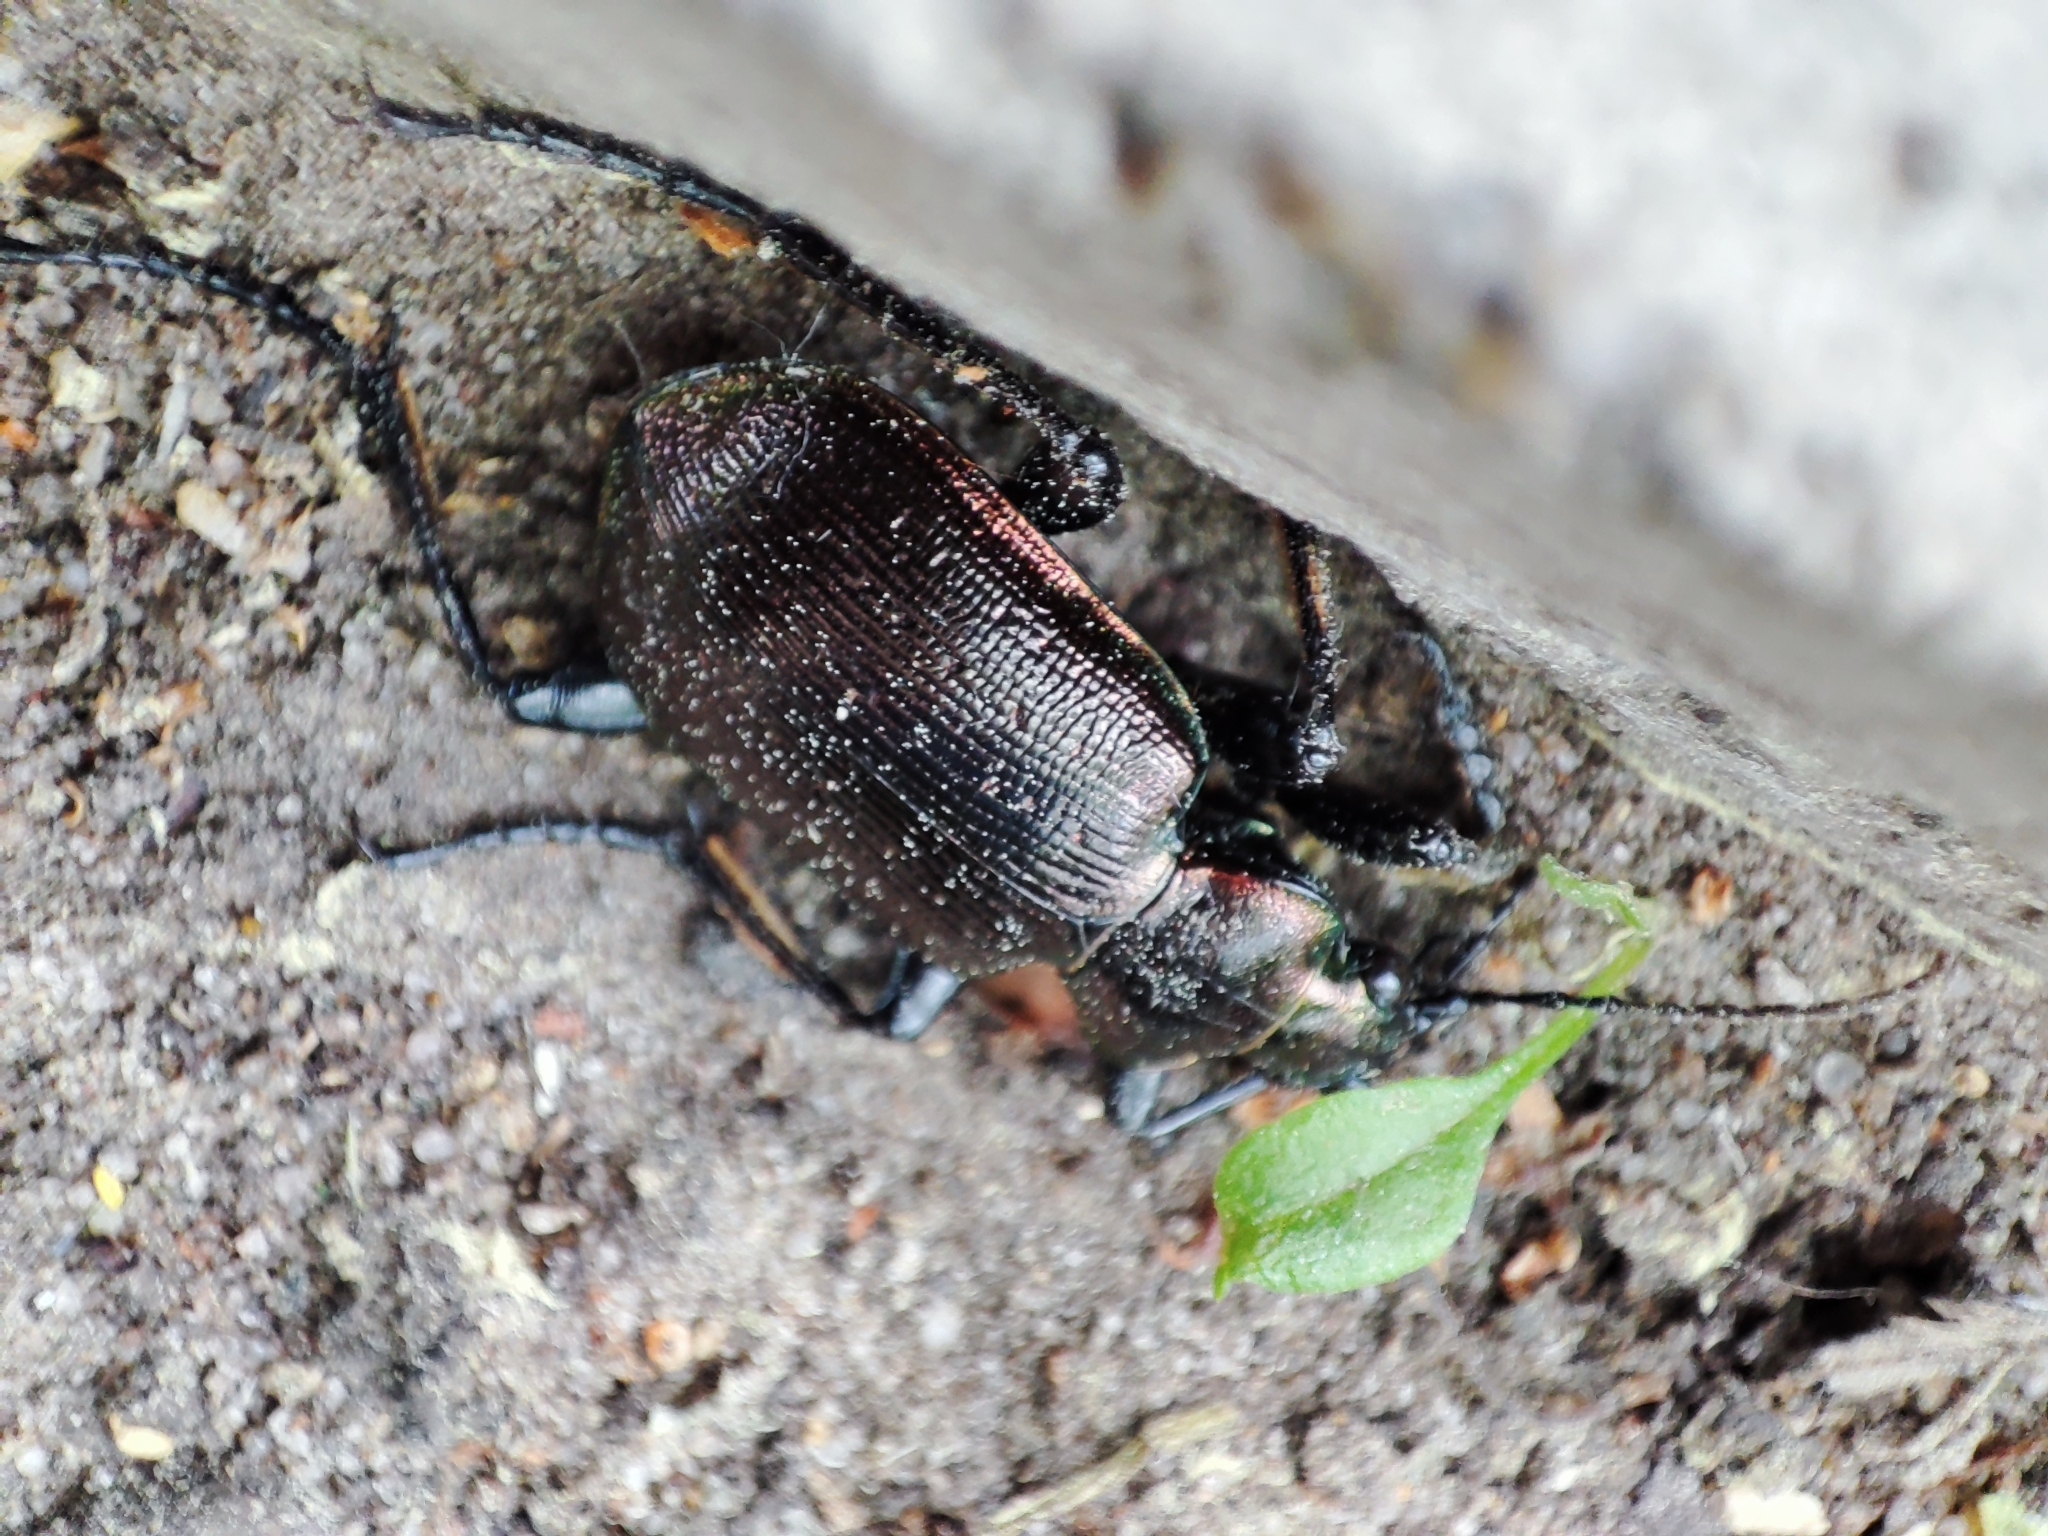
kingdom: Animalia
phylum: Arthropoda
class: Insecta
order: Coleoptera
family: Carabidae
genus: Calosoma
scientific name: Calosoma inquisitor
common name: Caterpillar-hunter
